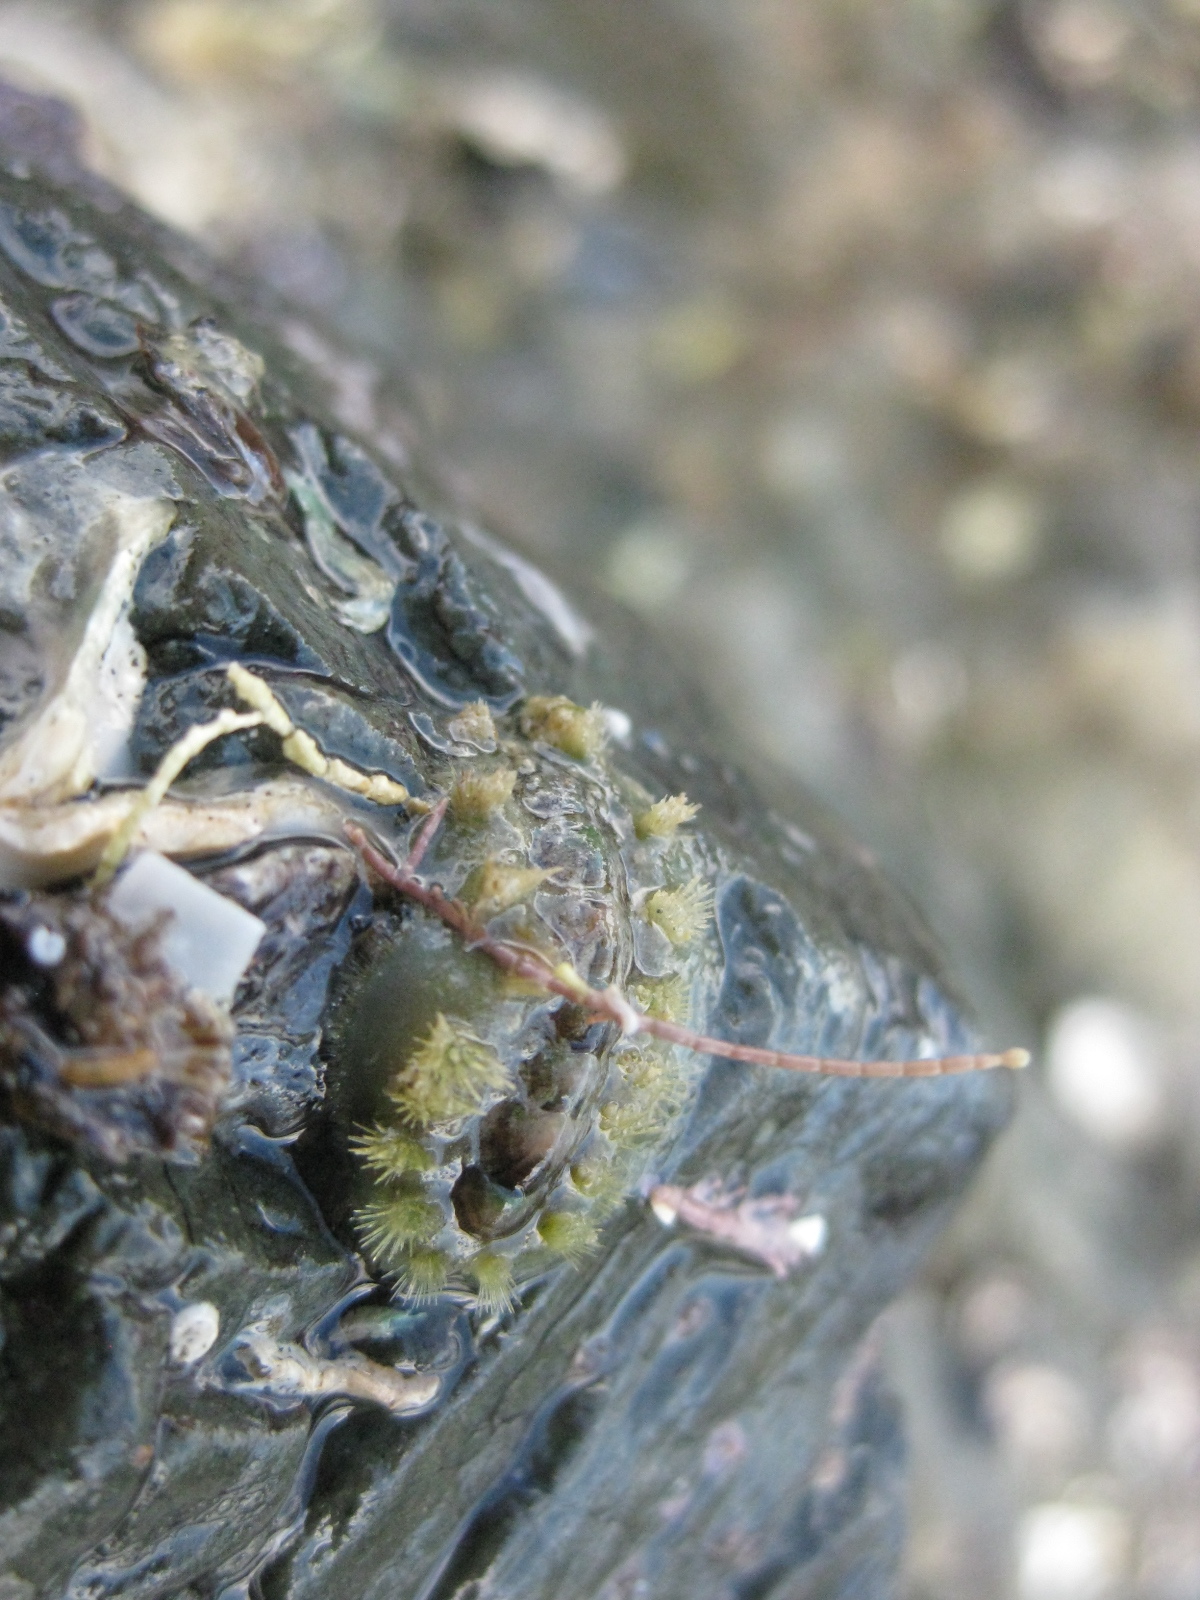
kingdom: Animalia
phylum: Mollusca
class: Polyplacophora
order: Chitonida
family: Acanthochitonidae
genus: Acanthochitona
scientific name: Acanthochitona zelandica
